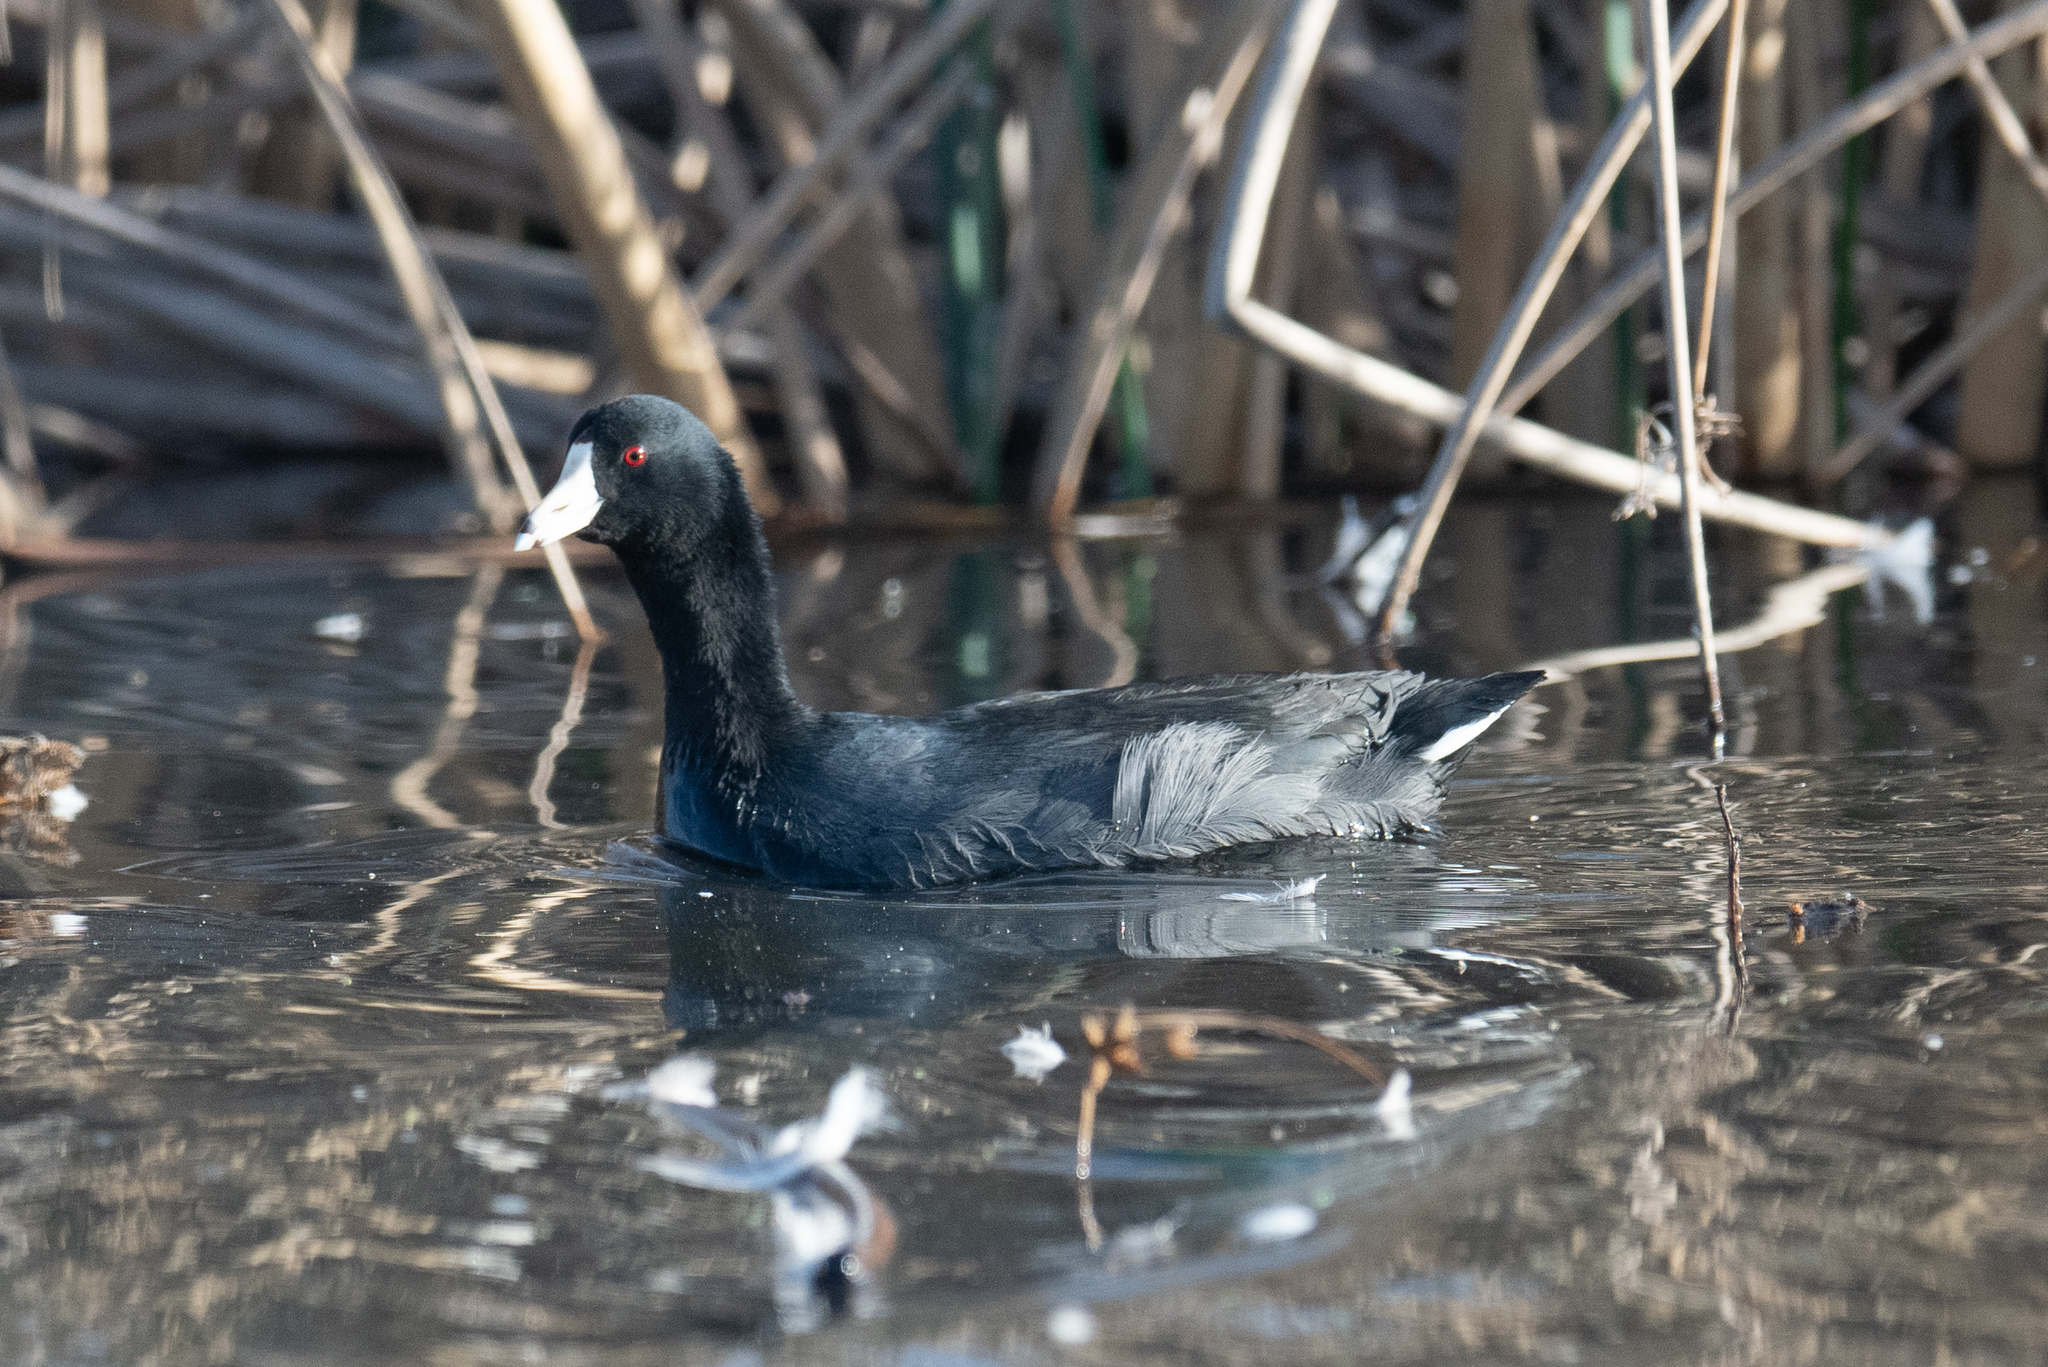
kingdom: Animalia
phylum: Chordata
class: Aves
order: Gruiformes
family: Rallidae
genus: Fulica
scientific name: Fulica americana
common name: American coot
